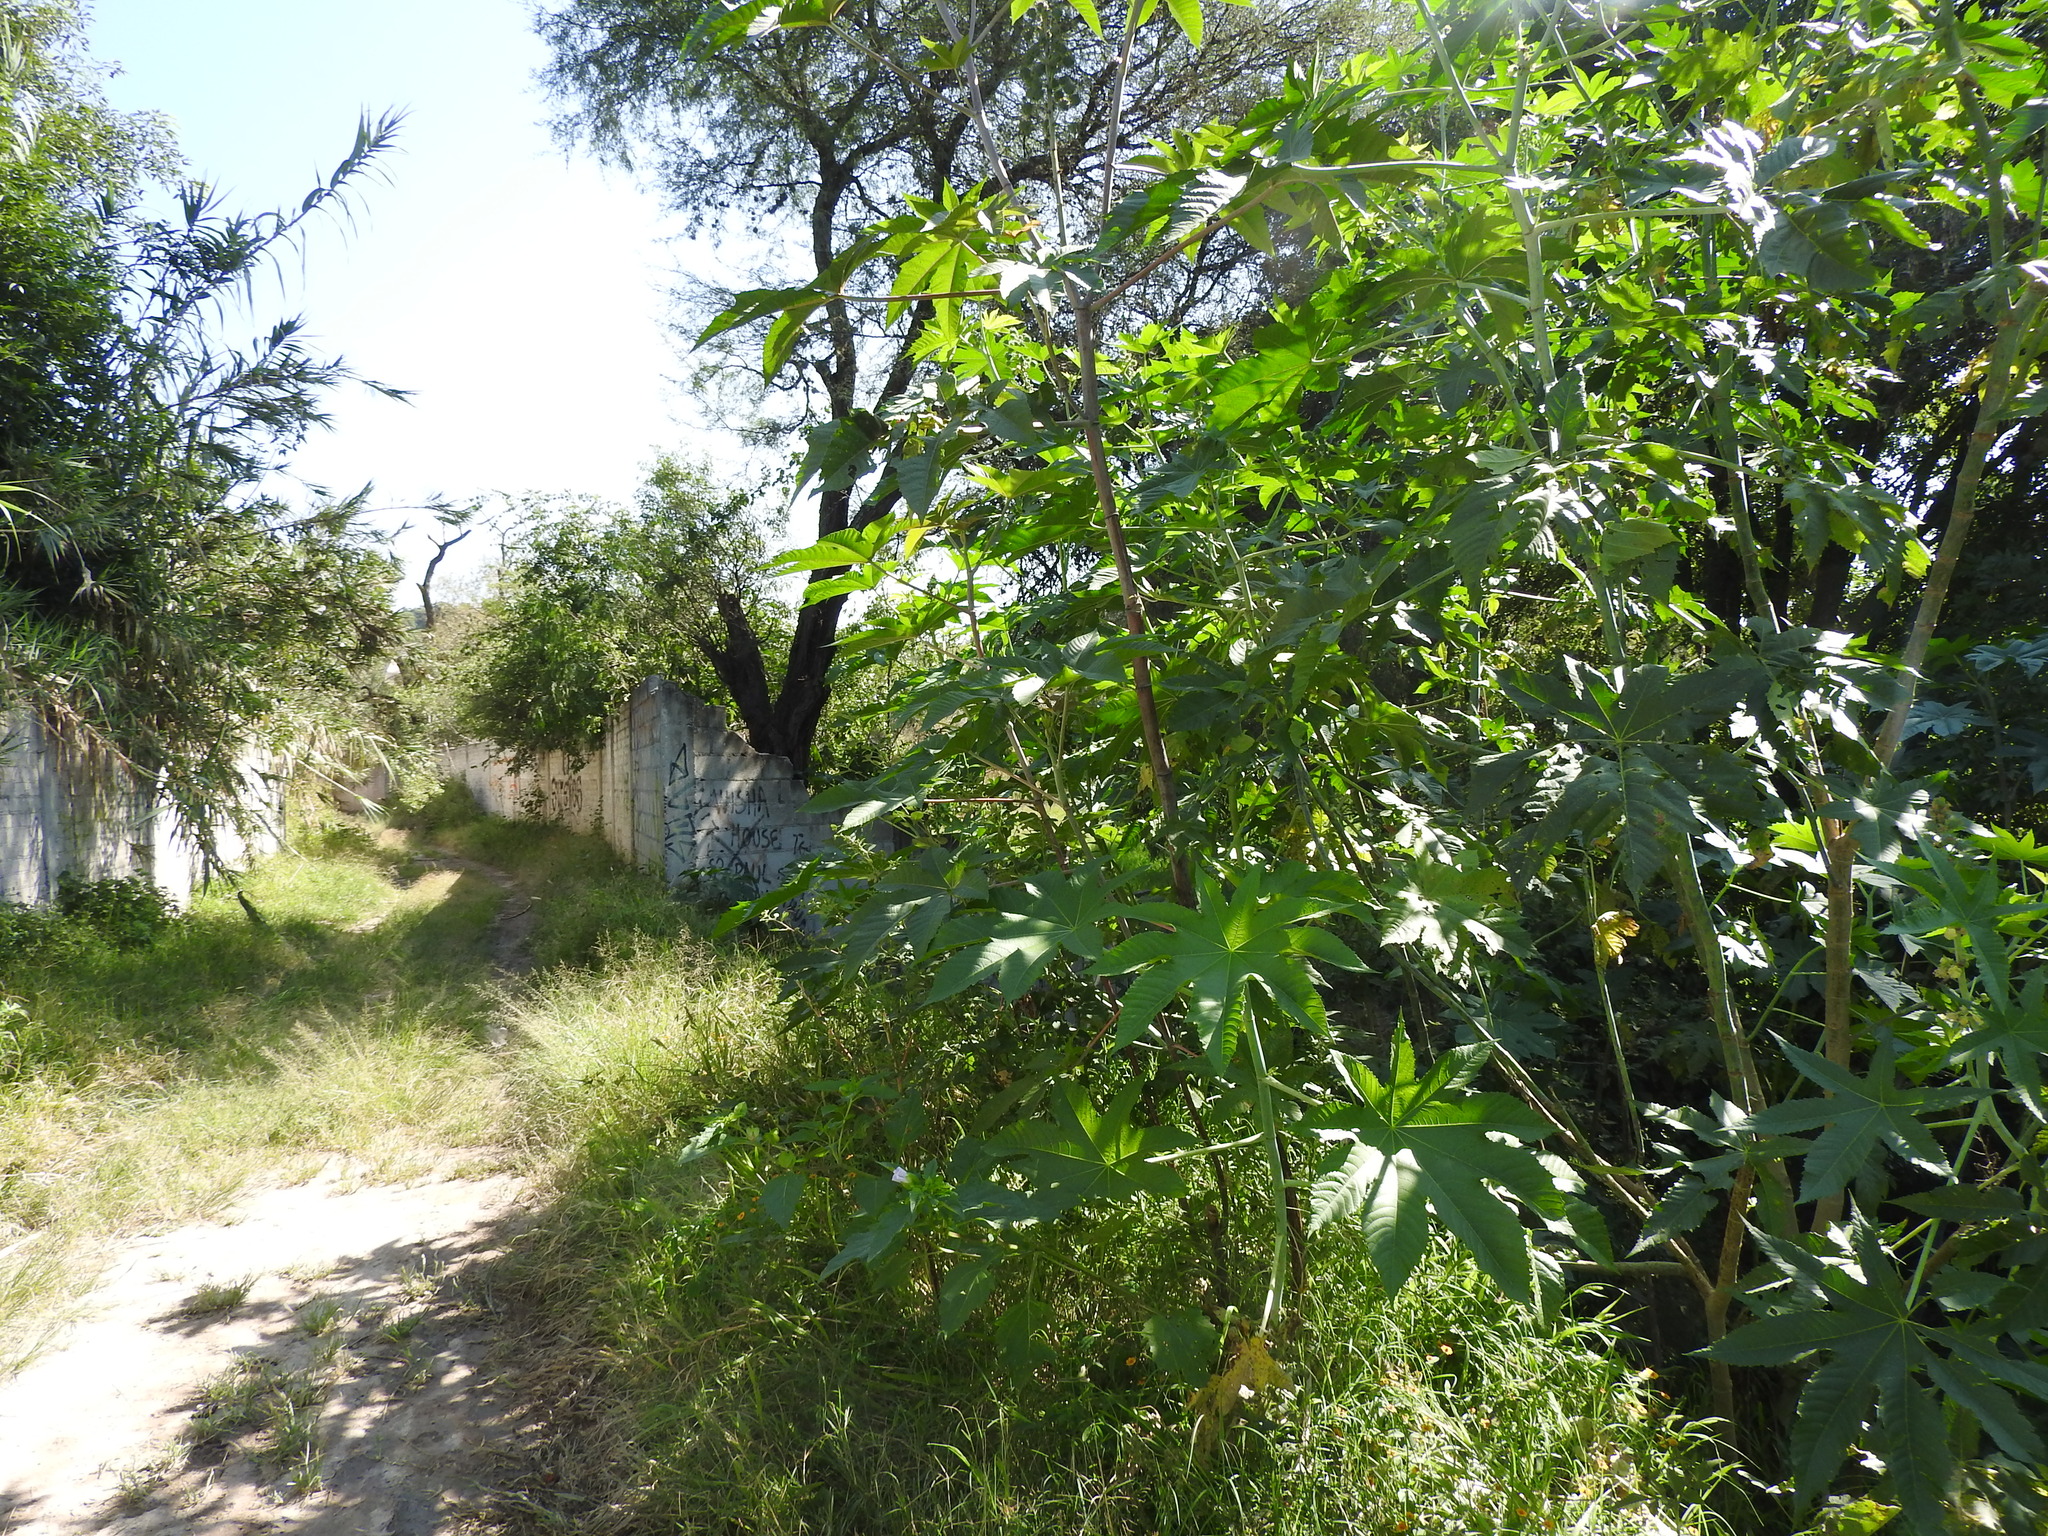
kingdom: Plantae
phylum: Tracheophyta
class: Magnoliopsida
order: Malpighiales
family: Euphorbiaceae
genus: Ricinus
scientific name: Ricinus communis
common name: Castor-oil-plant
